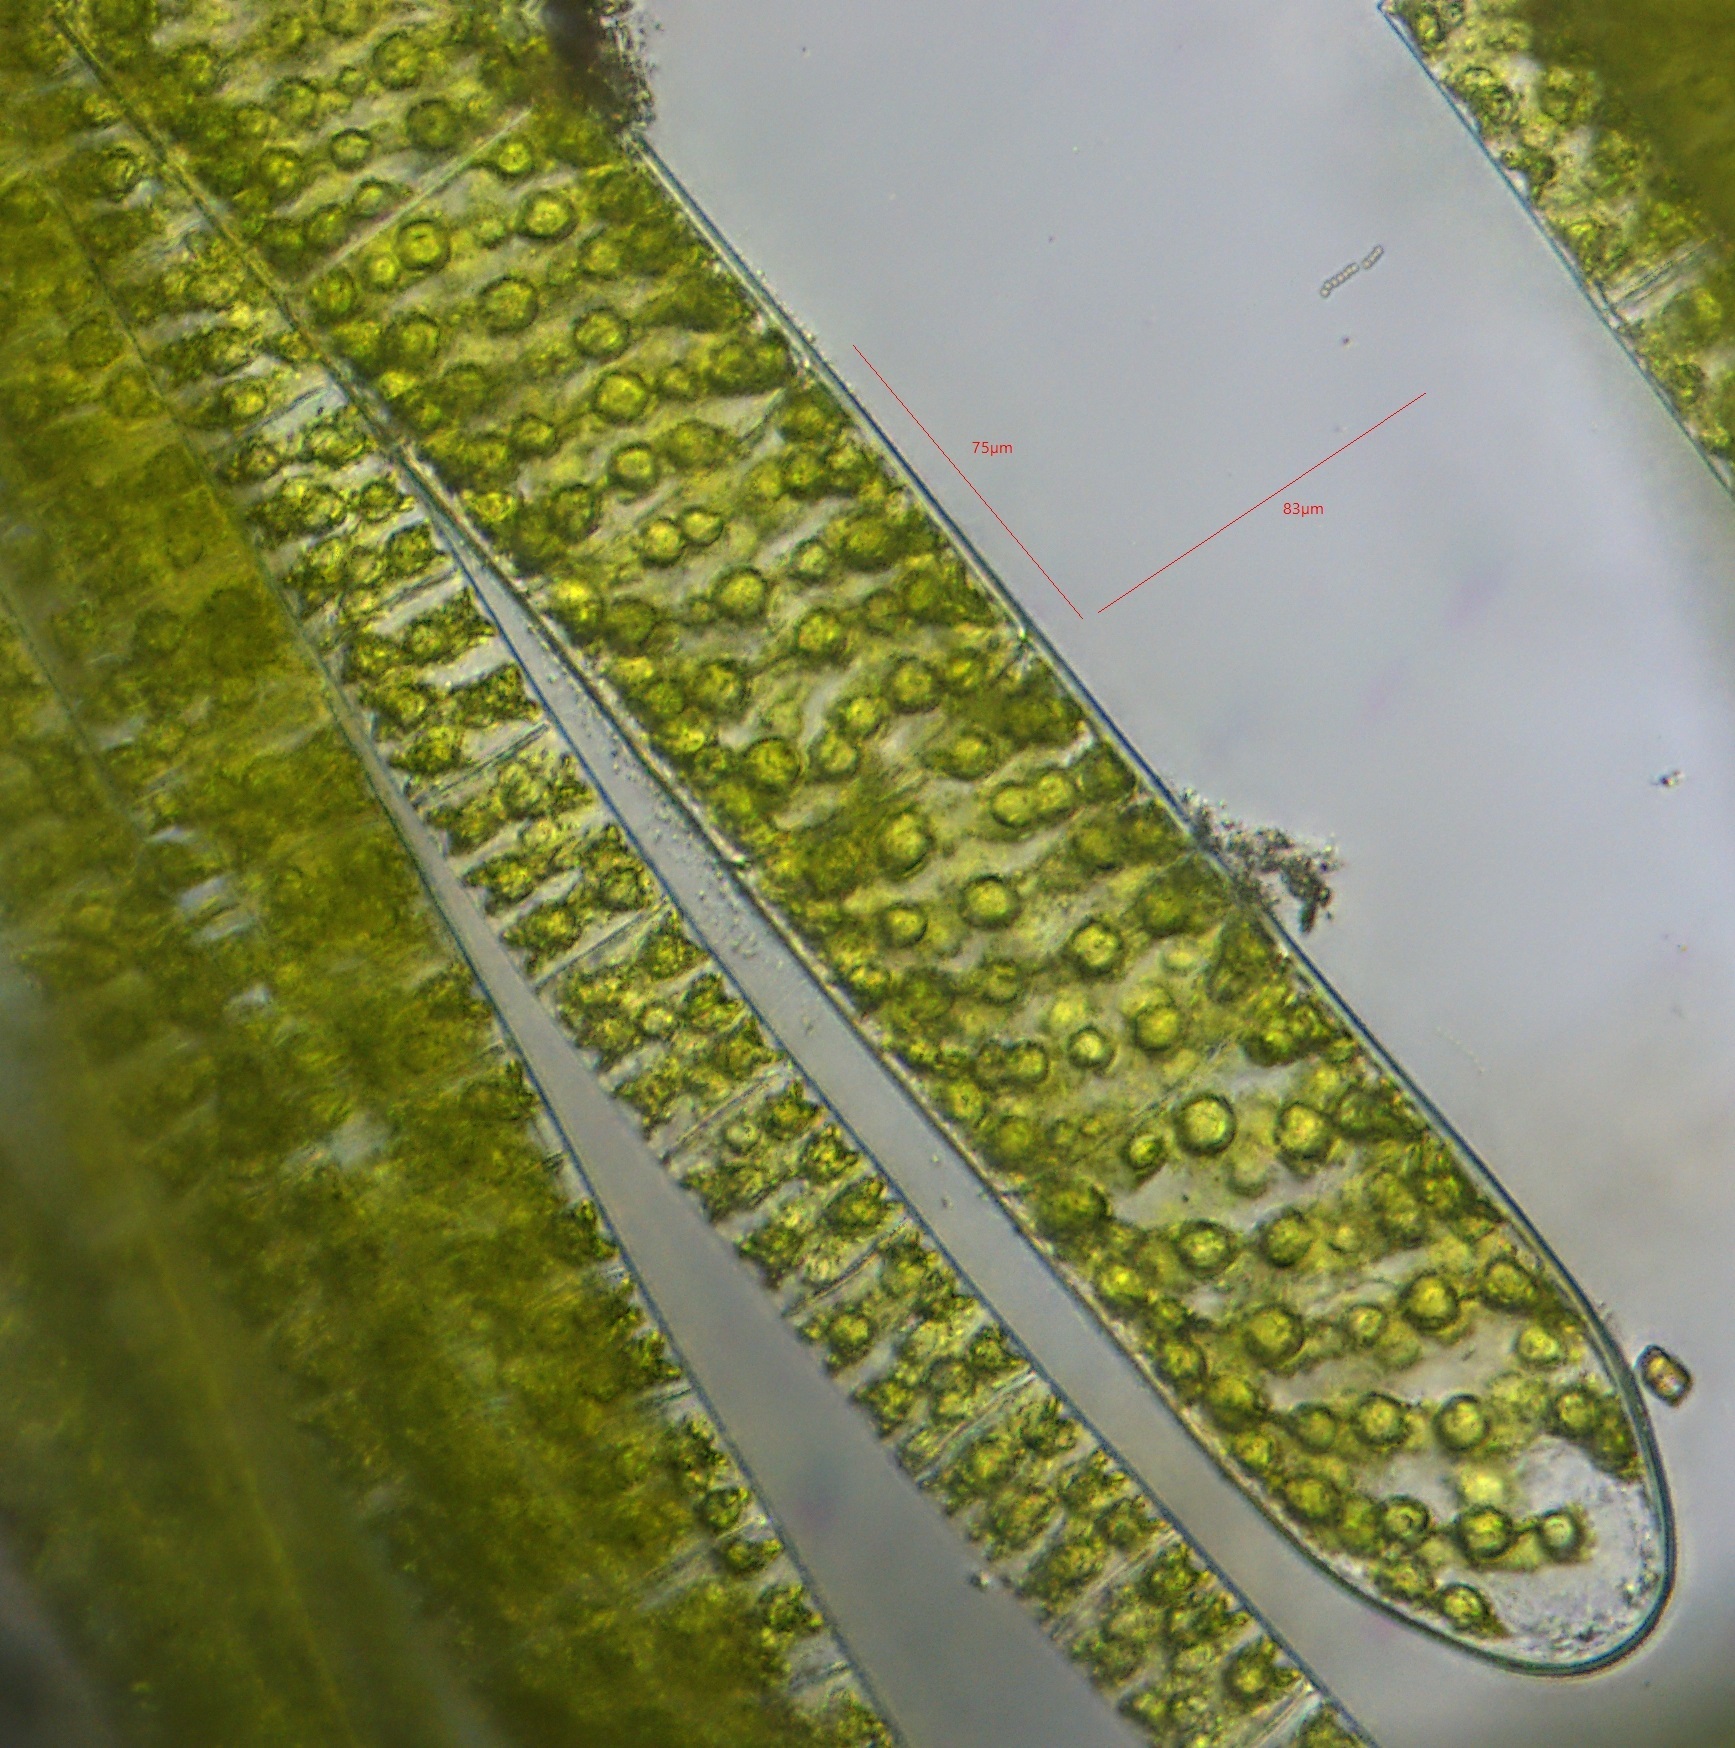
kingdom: Plantae
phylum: Charophyta
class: Zygnematophyceae
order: Zygnematales
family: Zygnemataceae
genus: Spirogyra
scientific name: Spirogyra
